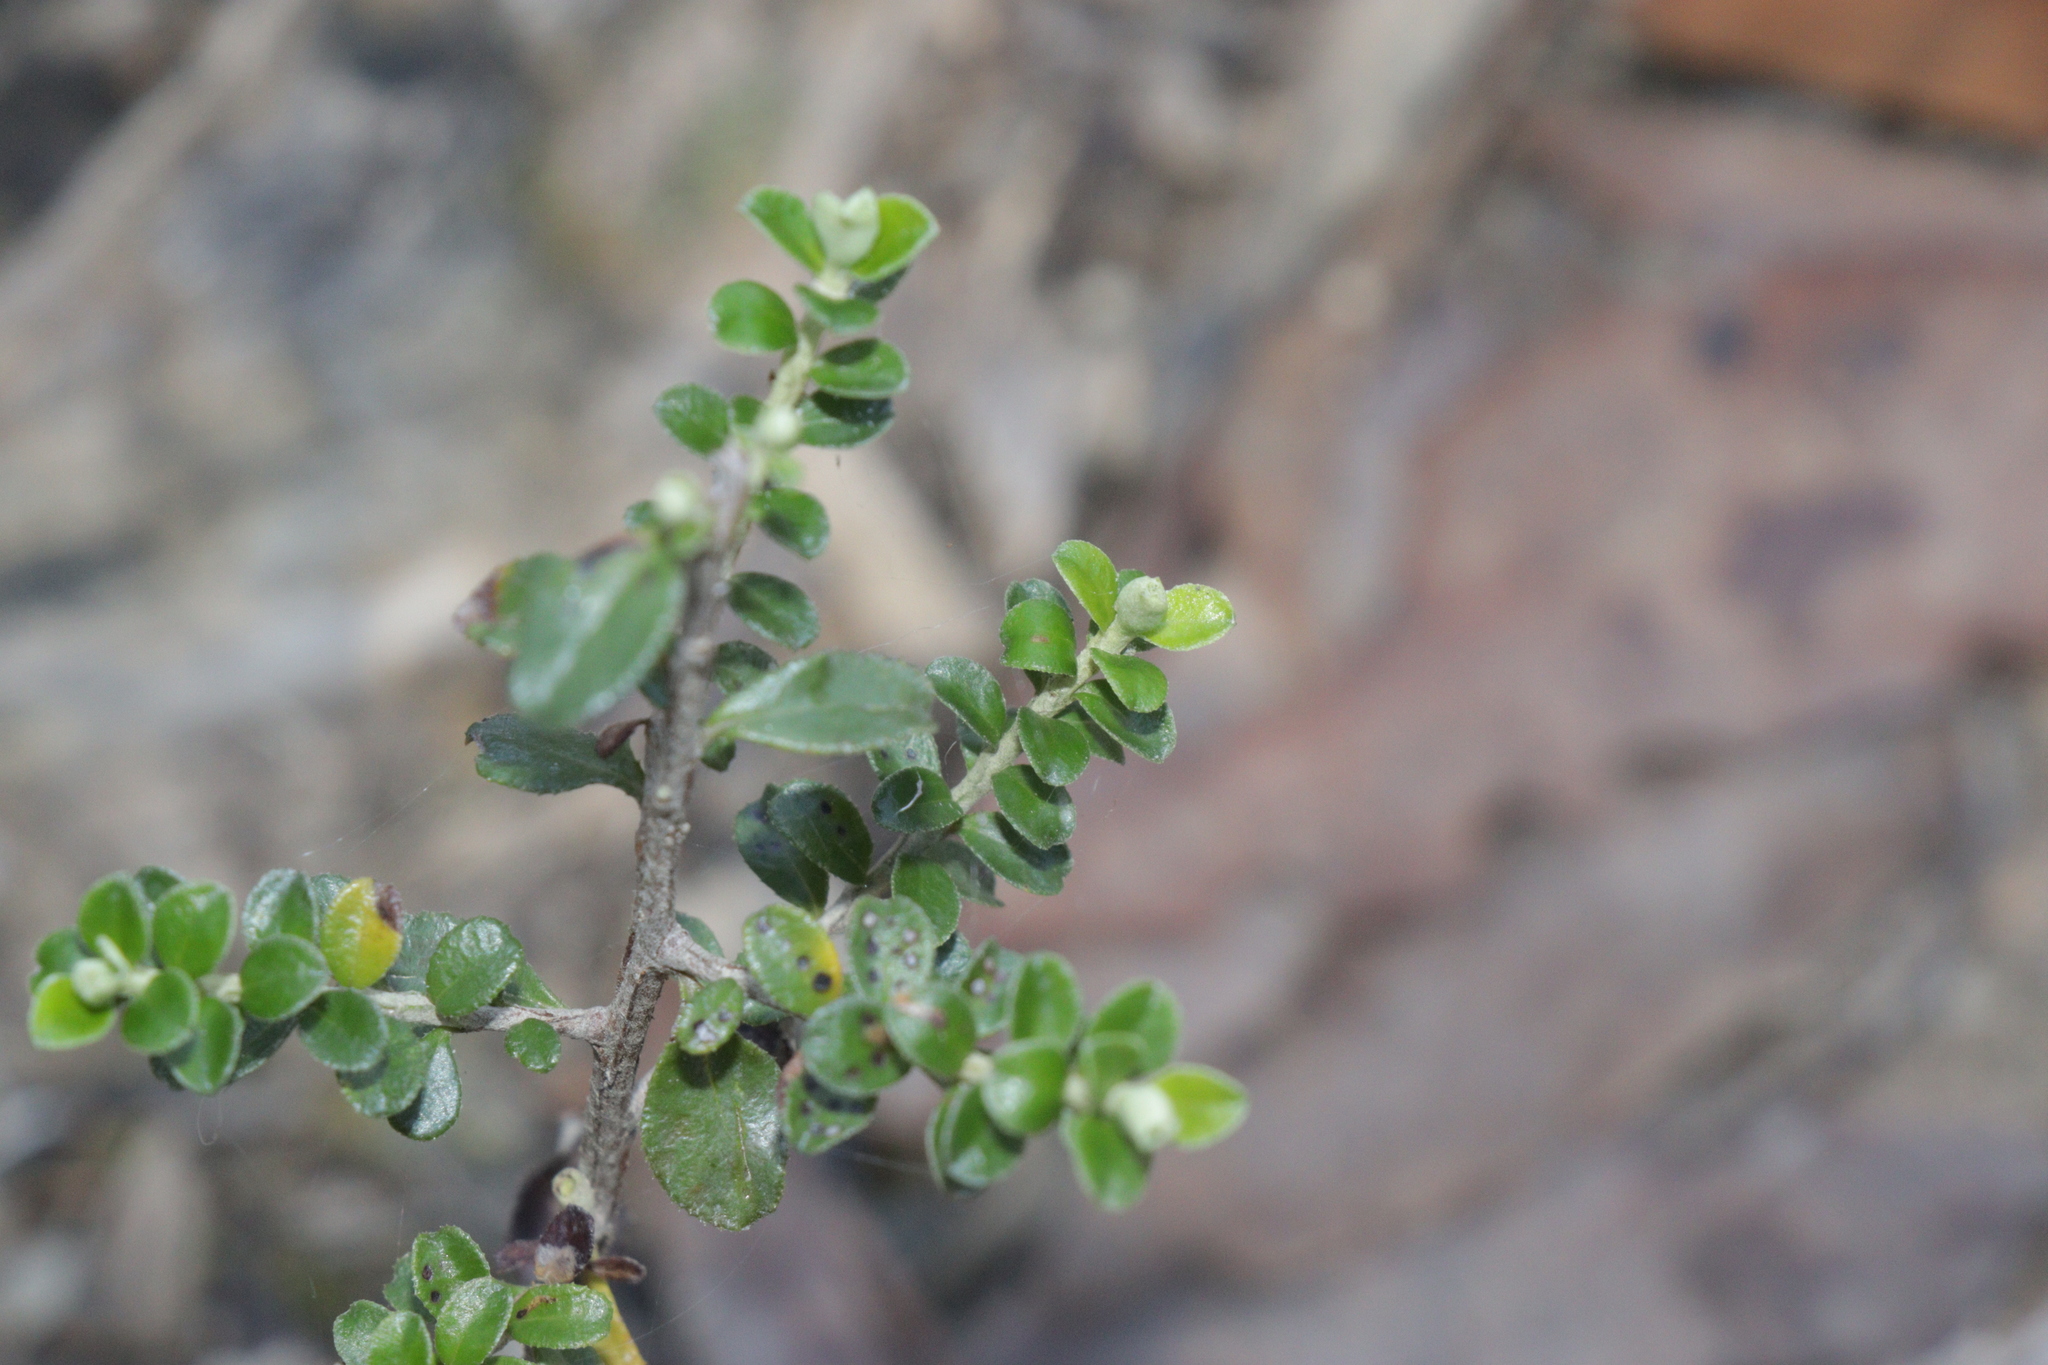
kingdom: Plantae
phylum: Tracheophyta
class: Magnoliopsida
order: Asterales
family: Asteraceae
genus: Ozothamnus
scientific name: Ozothamnus obcordatus
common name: Grey everlasting
